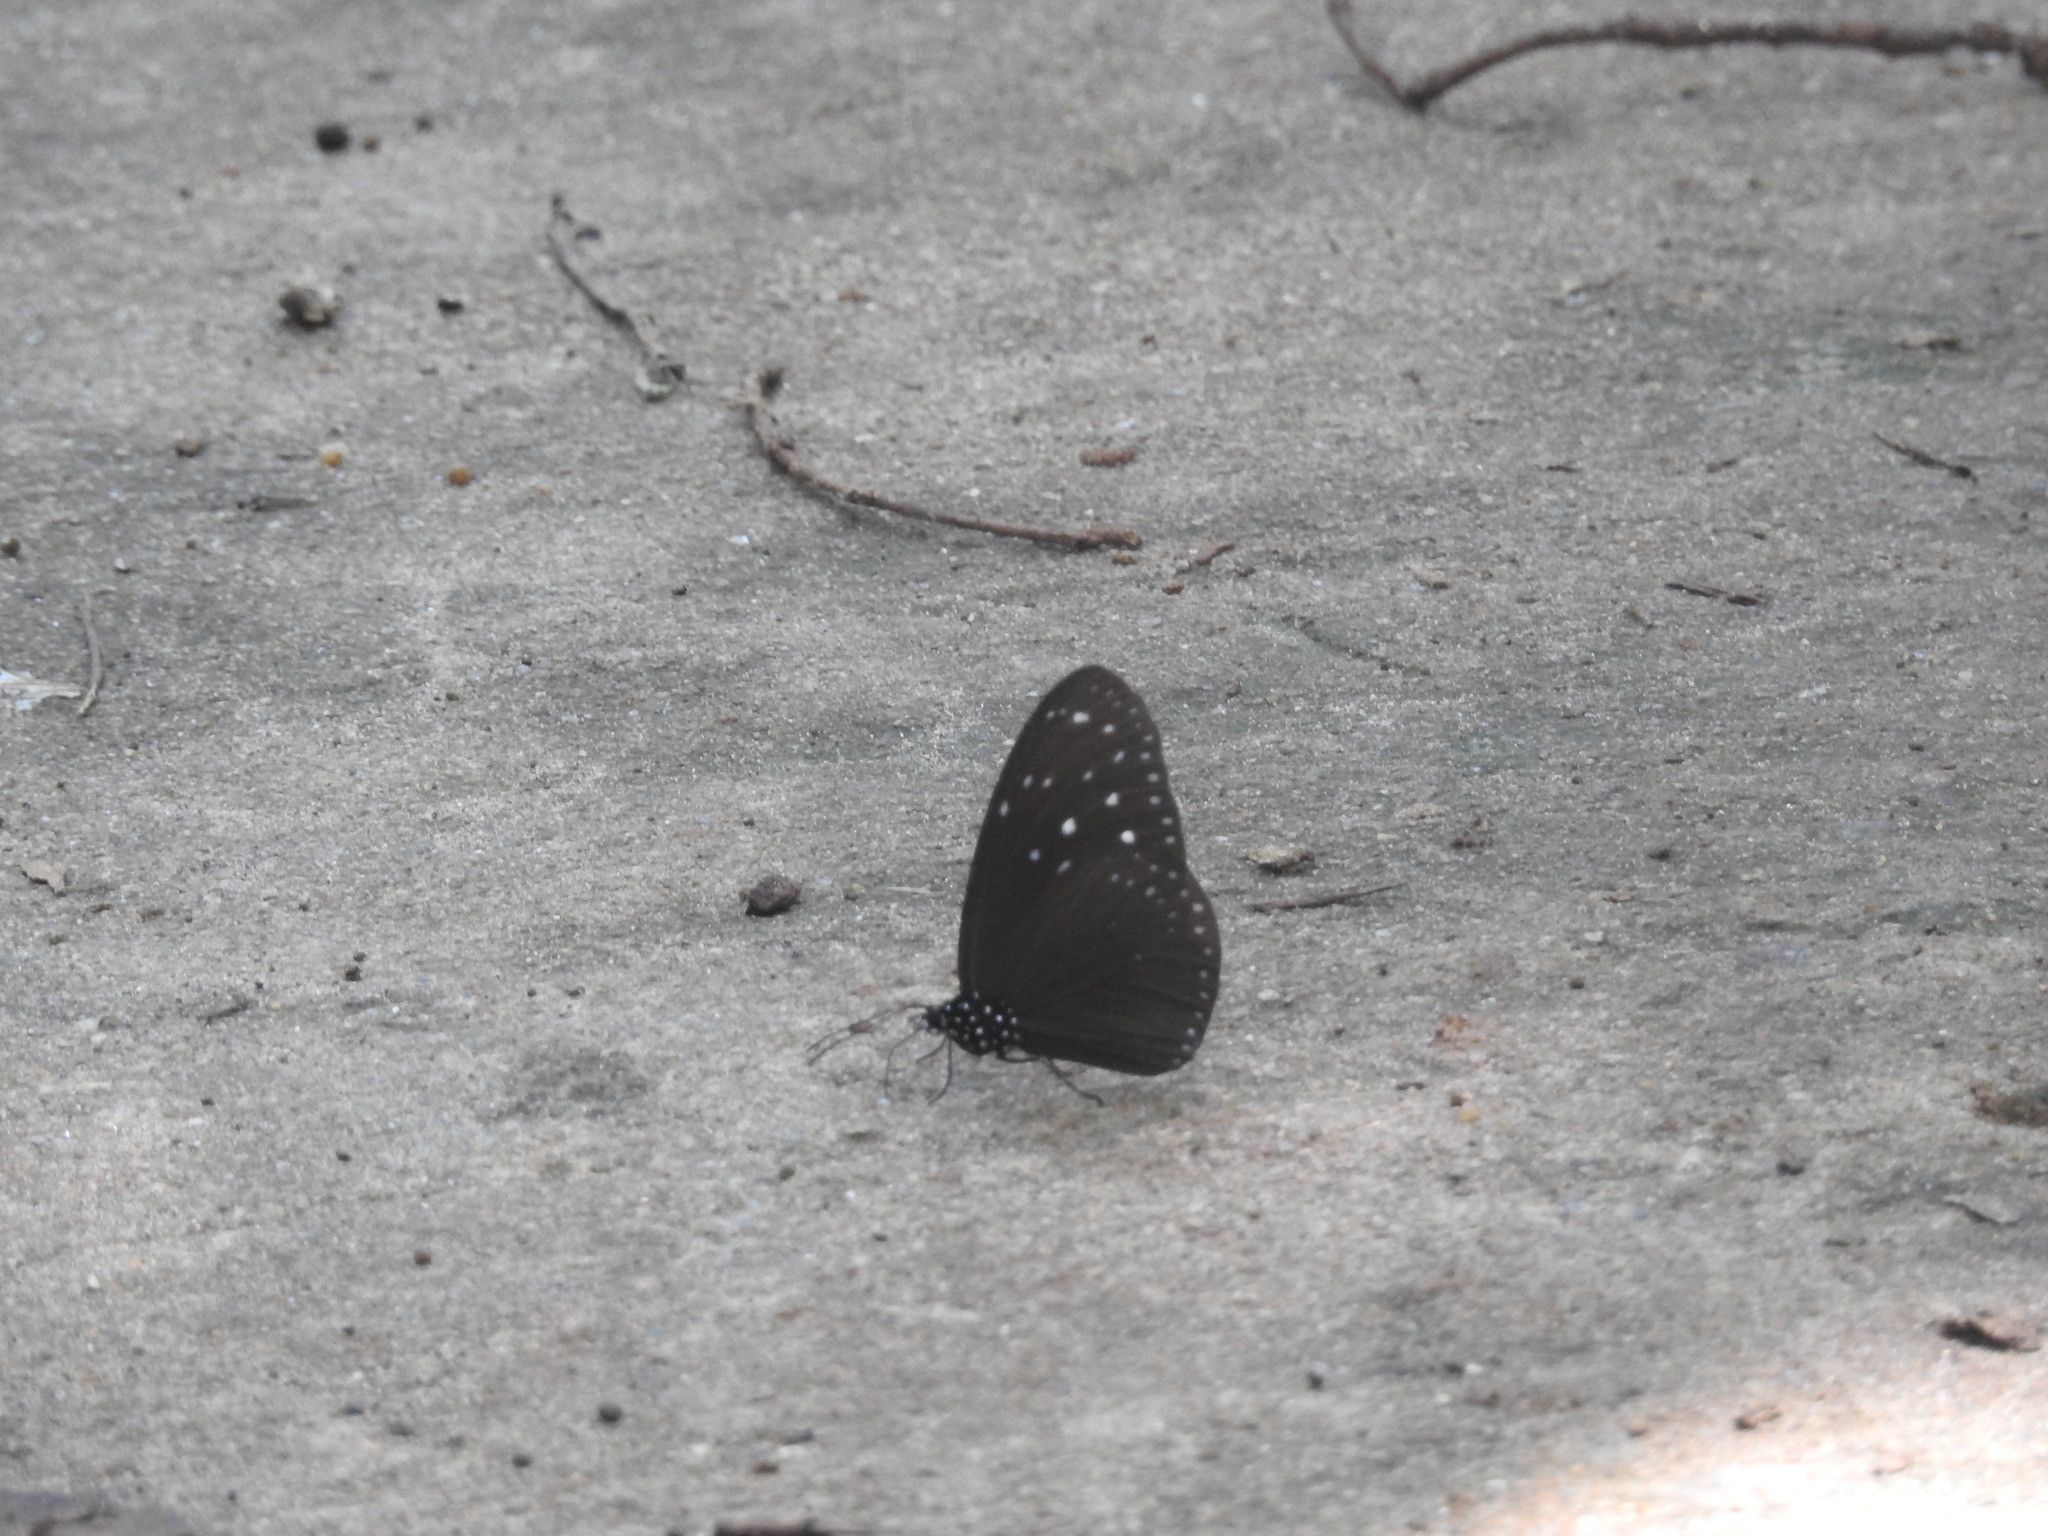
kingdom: Animalia
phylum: Arthropoda
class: Insecta
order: Lepidoptera
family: Nymphalidae
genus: Euploea
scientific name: Euploea mulciber
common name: Striped blue crow butterfly
